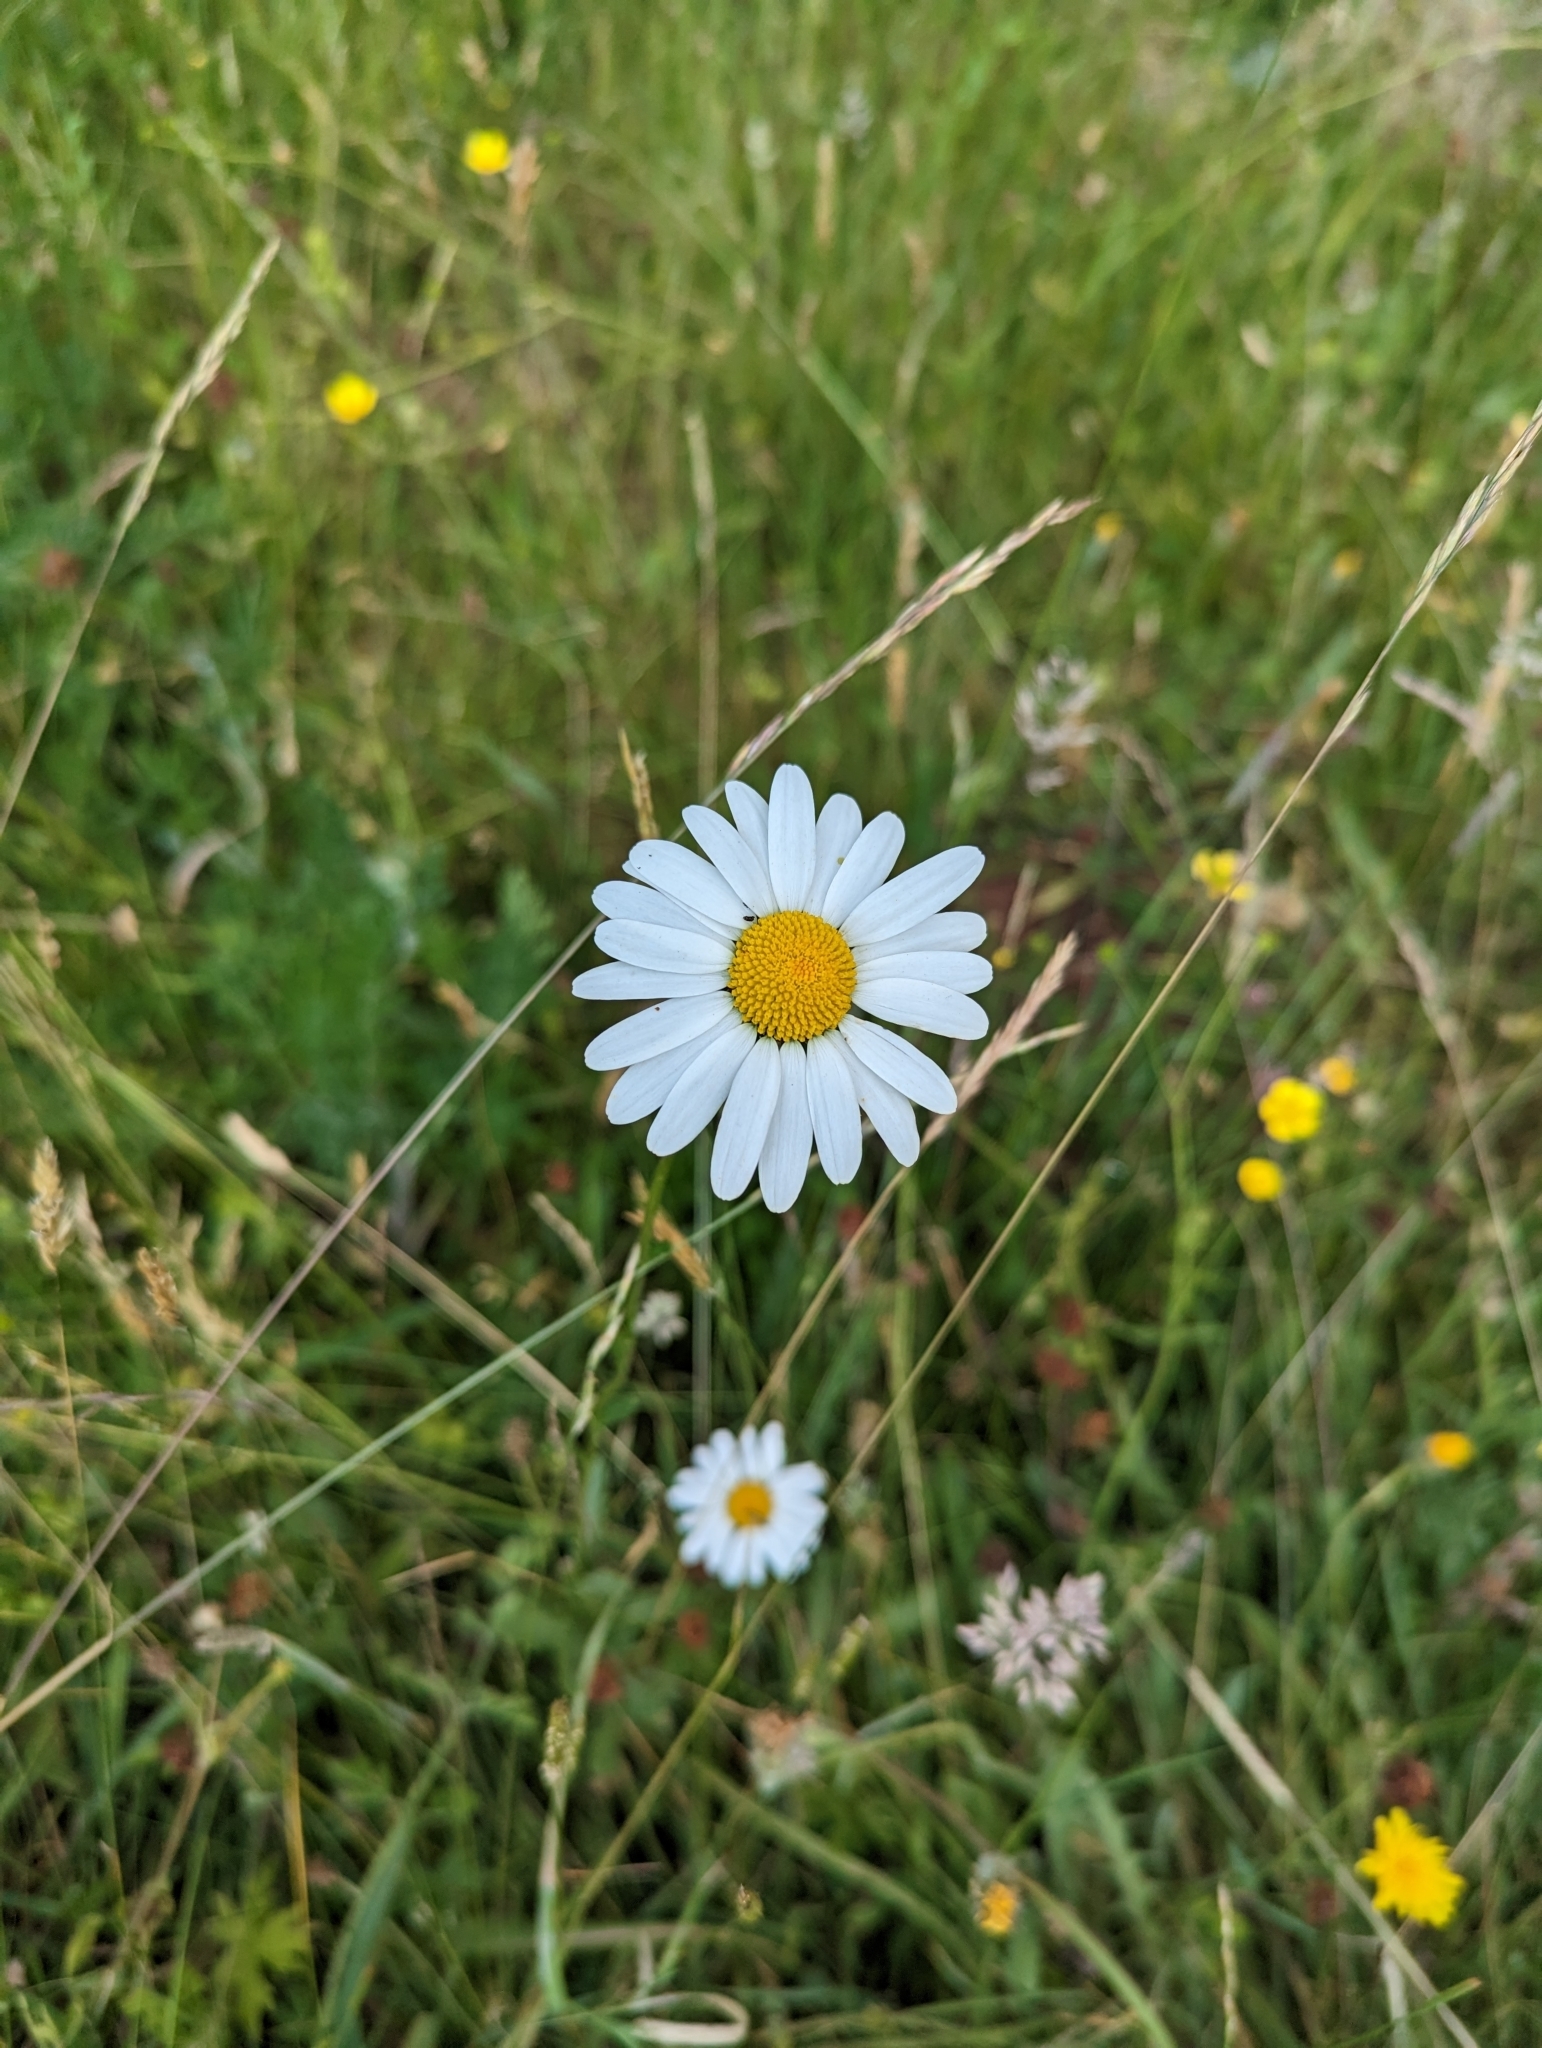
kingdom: Plantae
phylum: Tracheophyta
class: Magnoliopsida
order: Asterales
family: Asteraceae
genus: Leucanthemum
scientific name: Leucanthemum vulgare
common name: Oxeye daisy
